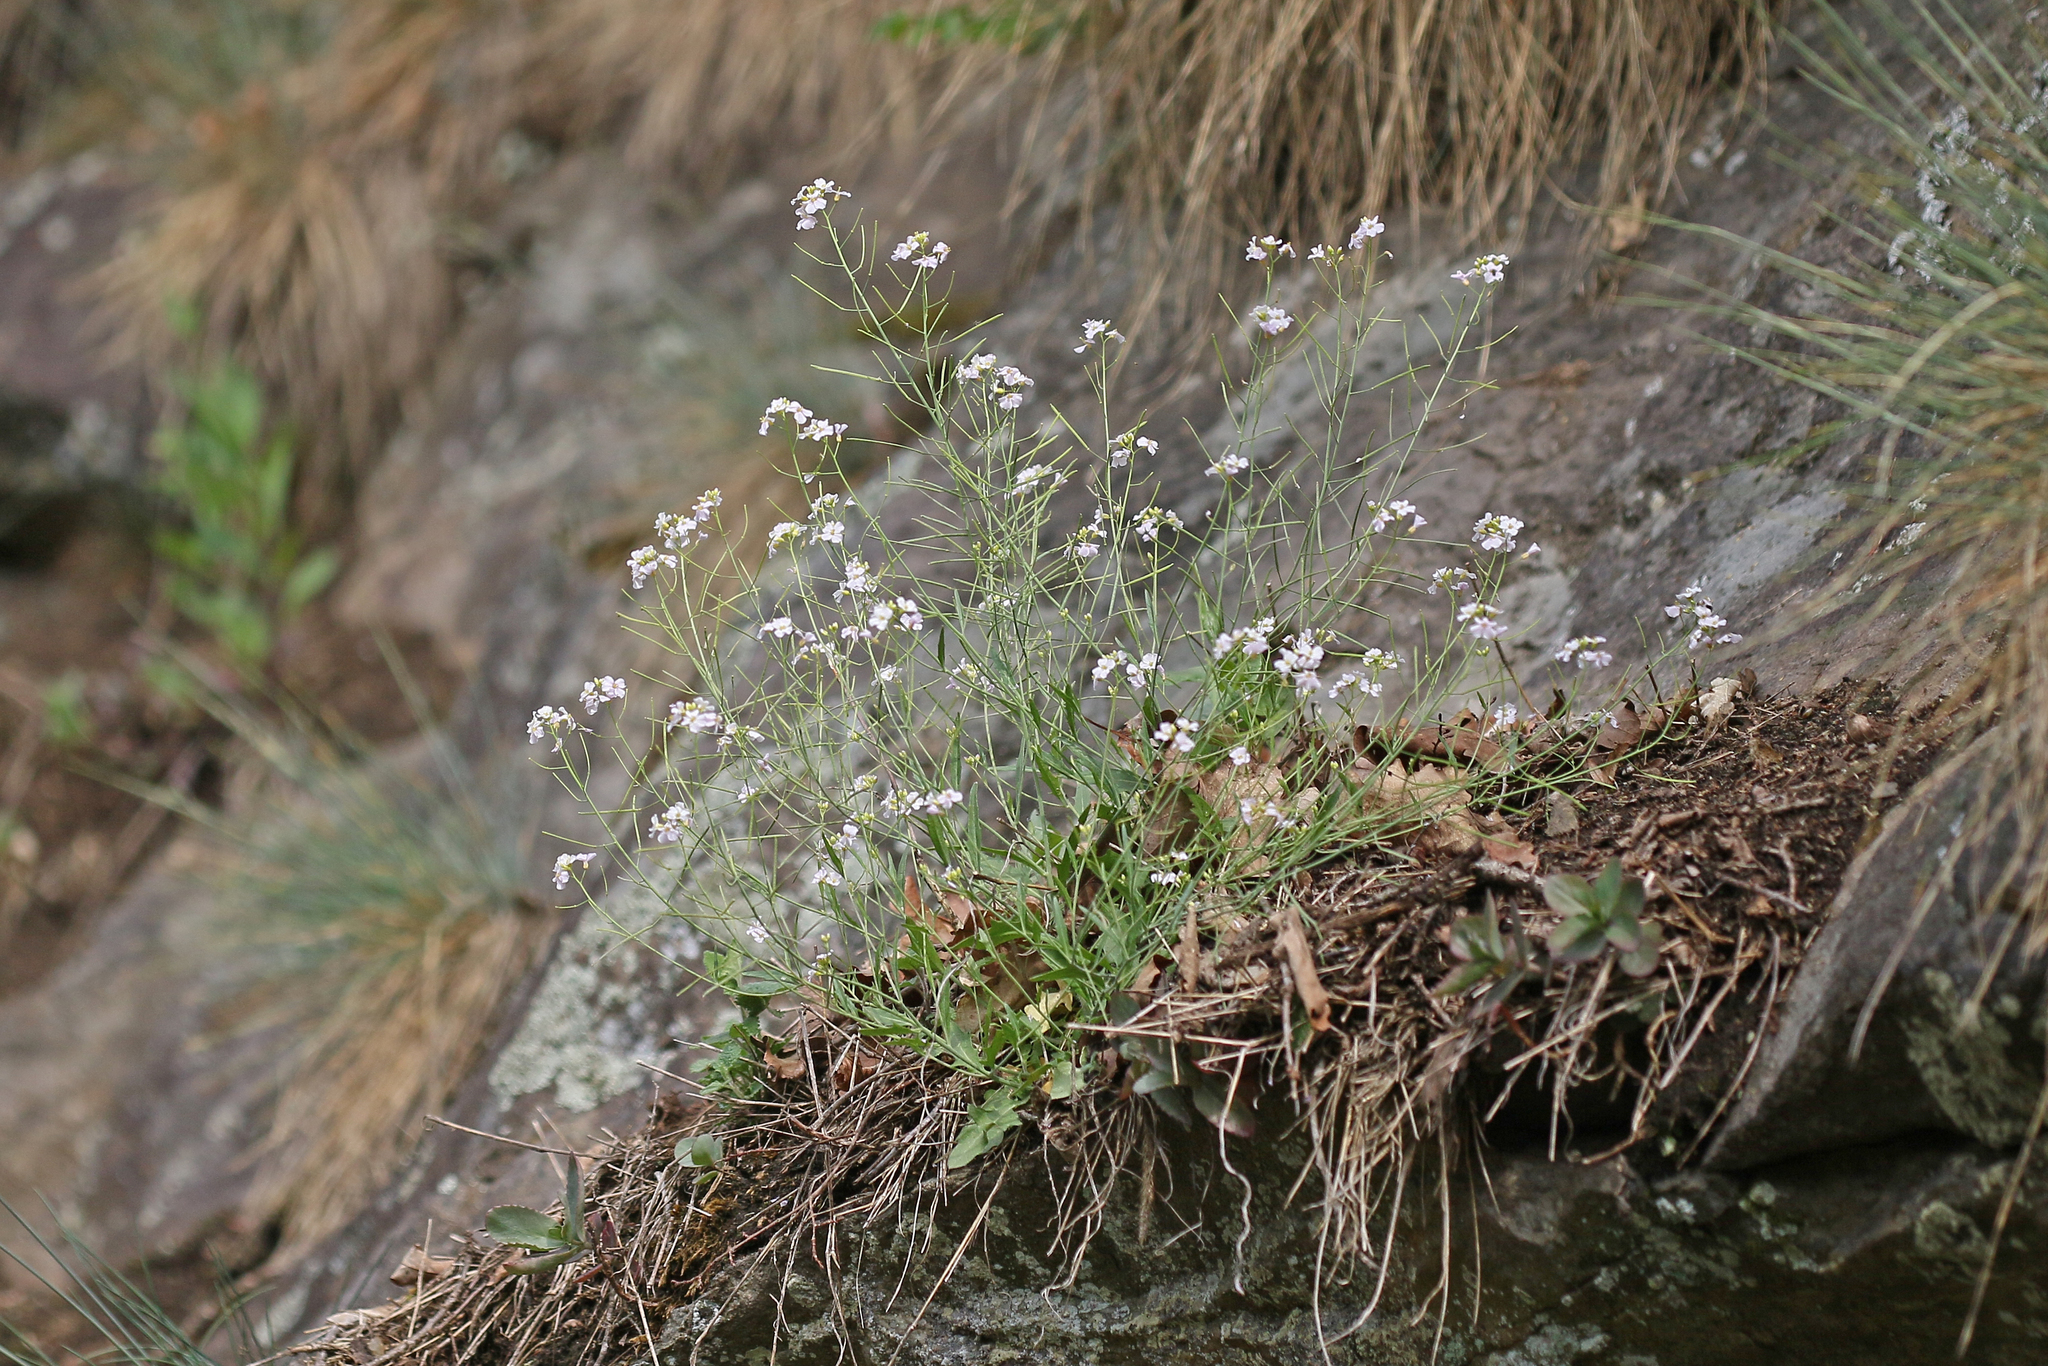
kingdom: Plantae
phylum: Tracheophyta
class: Magnoliopsida
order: Brassicales
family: Brassicaceae
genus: Arabidopsis
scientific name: Arabidopsis arenosa
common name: Sand rock-cress
